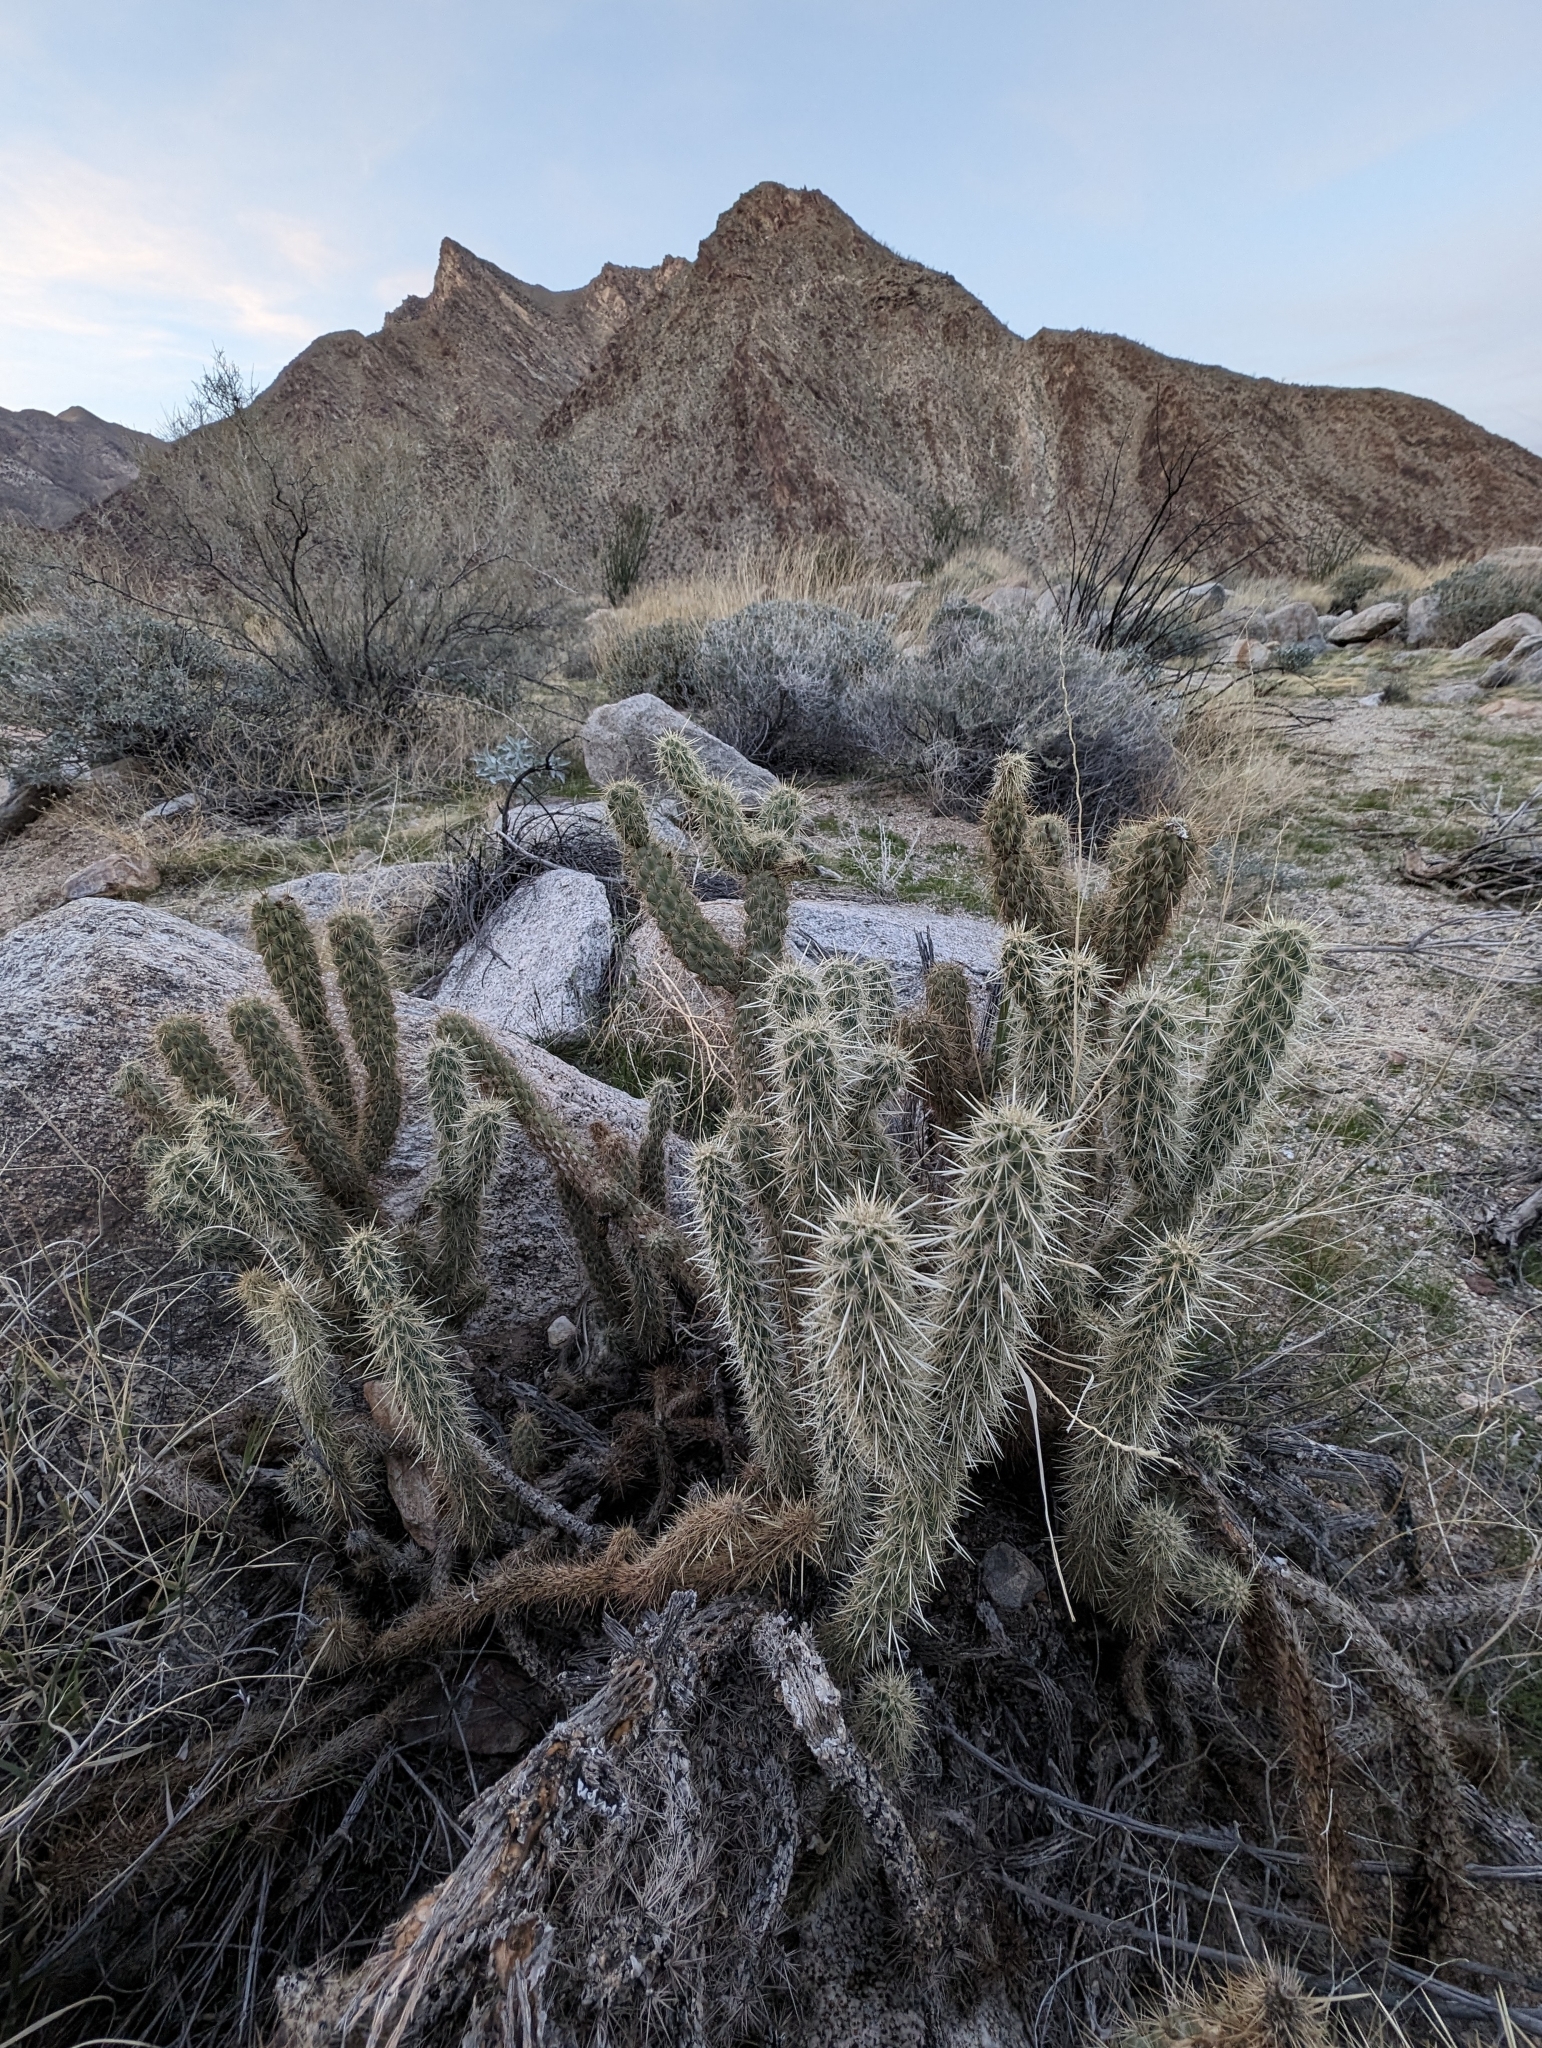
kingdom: Plantae
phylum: Tracheophyta
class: Magnoliopsida
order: Caryophyllales
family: Cactaceae
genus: Cylindropuntia
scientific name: Cylindropuntia ganderi
